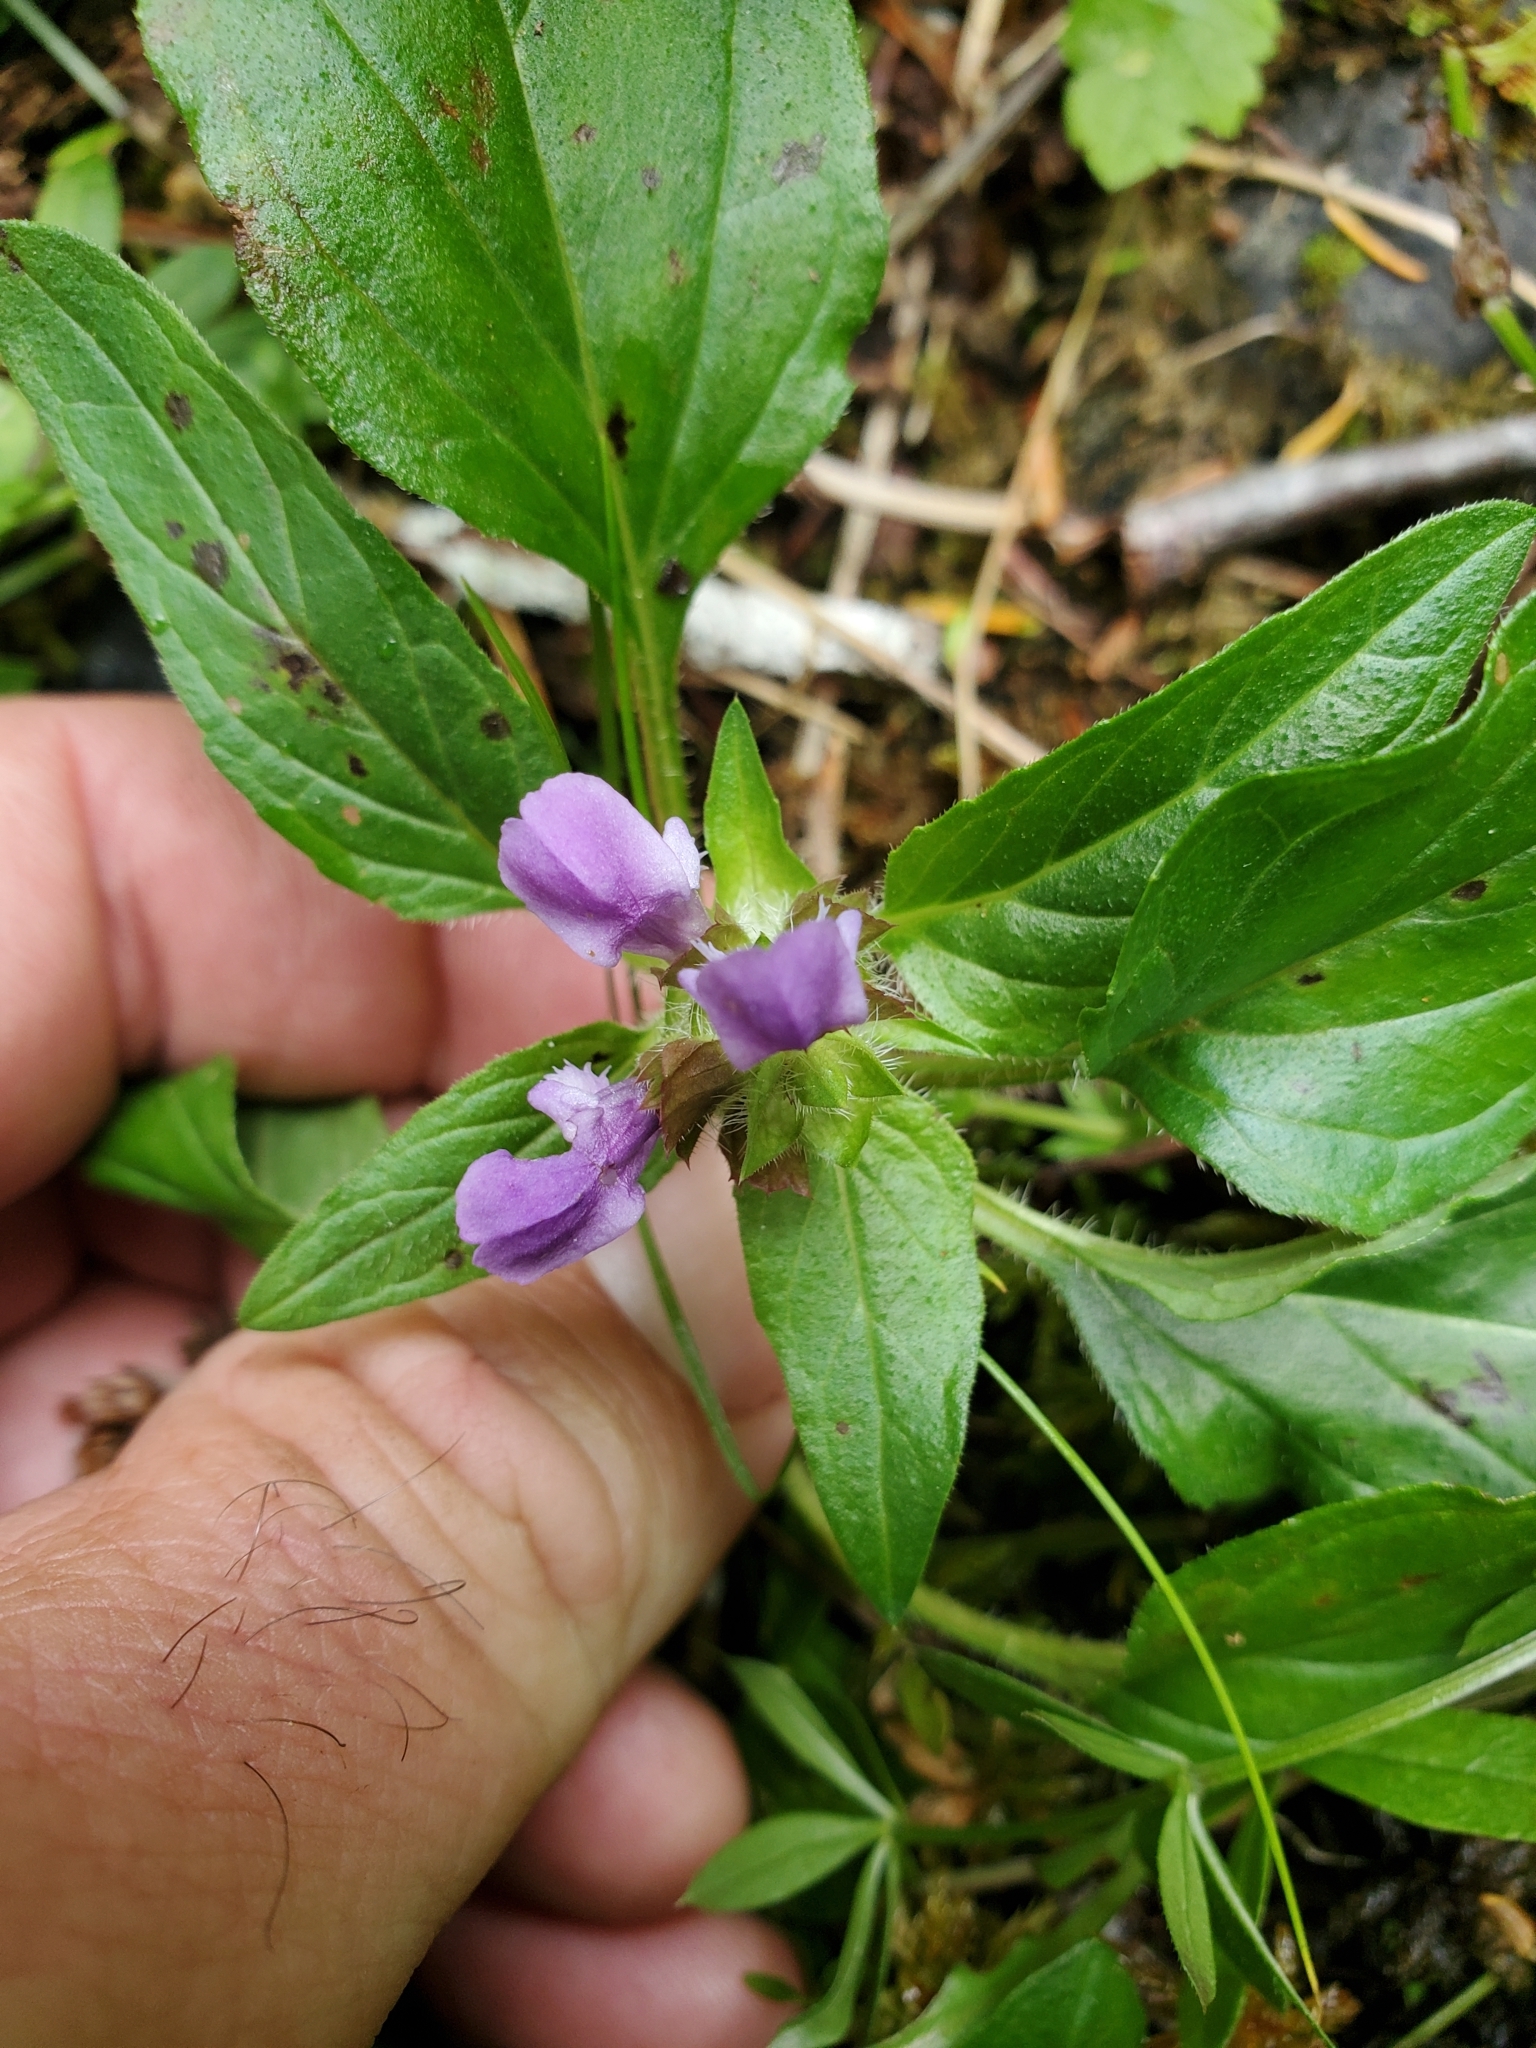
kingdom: Plantae
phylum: Tracheophyta
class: Magnoliopsida
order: Lamiales
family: Lamiaceae
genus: Prunella
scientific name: Prunella vulgaris
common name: Heal-all
